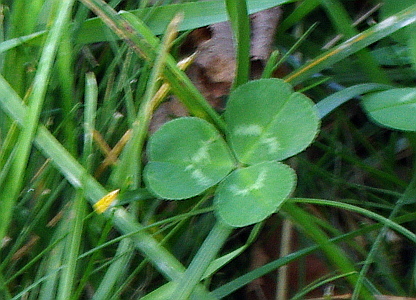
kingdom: Plantae
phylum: Tracheophyta
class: Magnoliopsida
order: Fabales
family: Fabaceae
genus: Trifolium
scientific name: Trifolium repens
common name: White clover
